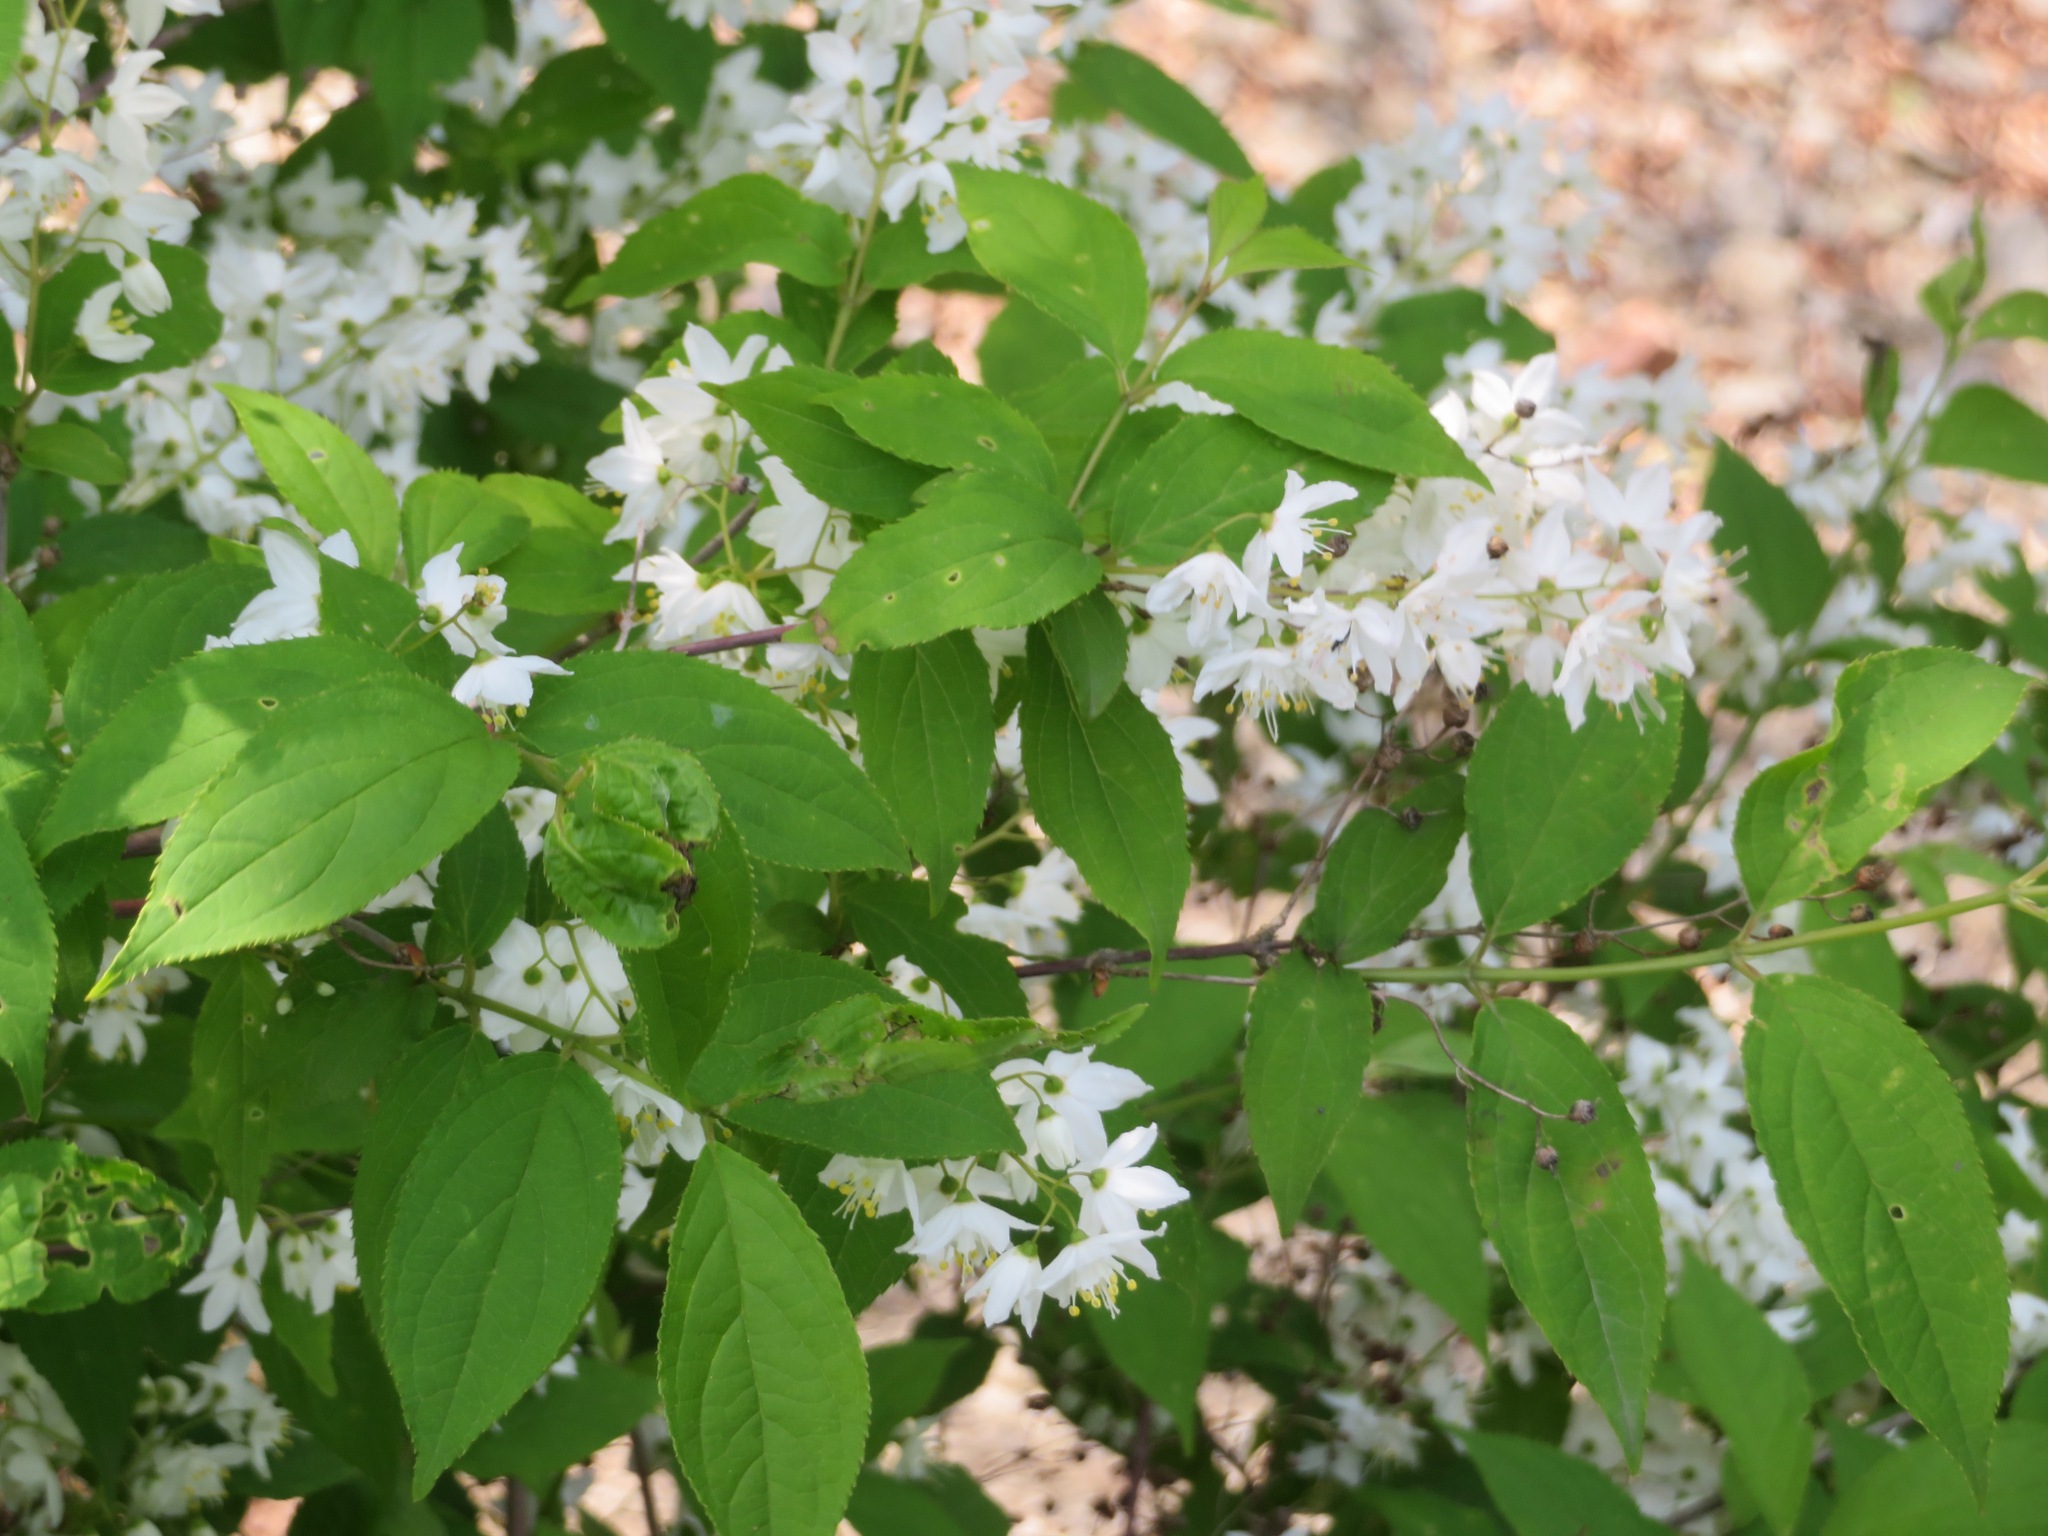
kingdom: Plantae
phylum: Tracheophyta
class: Magnoliopsida
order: Cornales
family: Hydrangeaceae
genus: Deutzia
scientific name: Deutzia gracilis
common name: Slender pride of rochester
